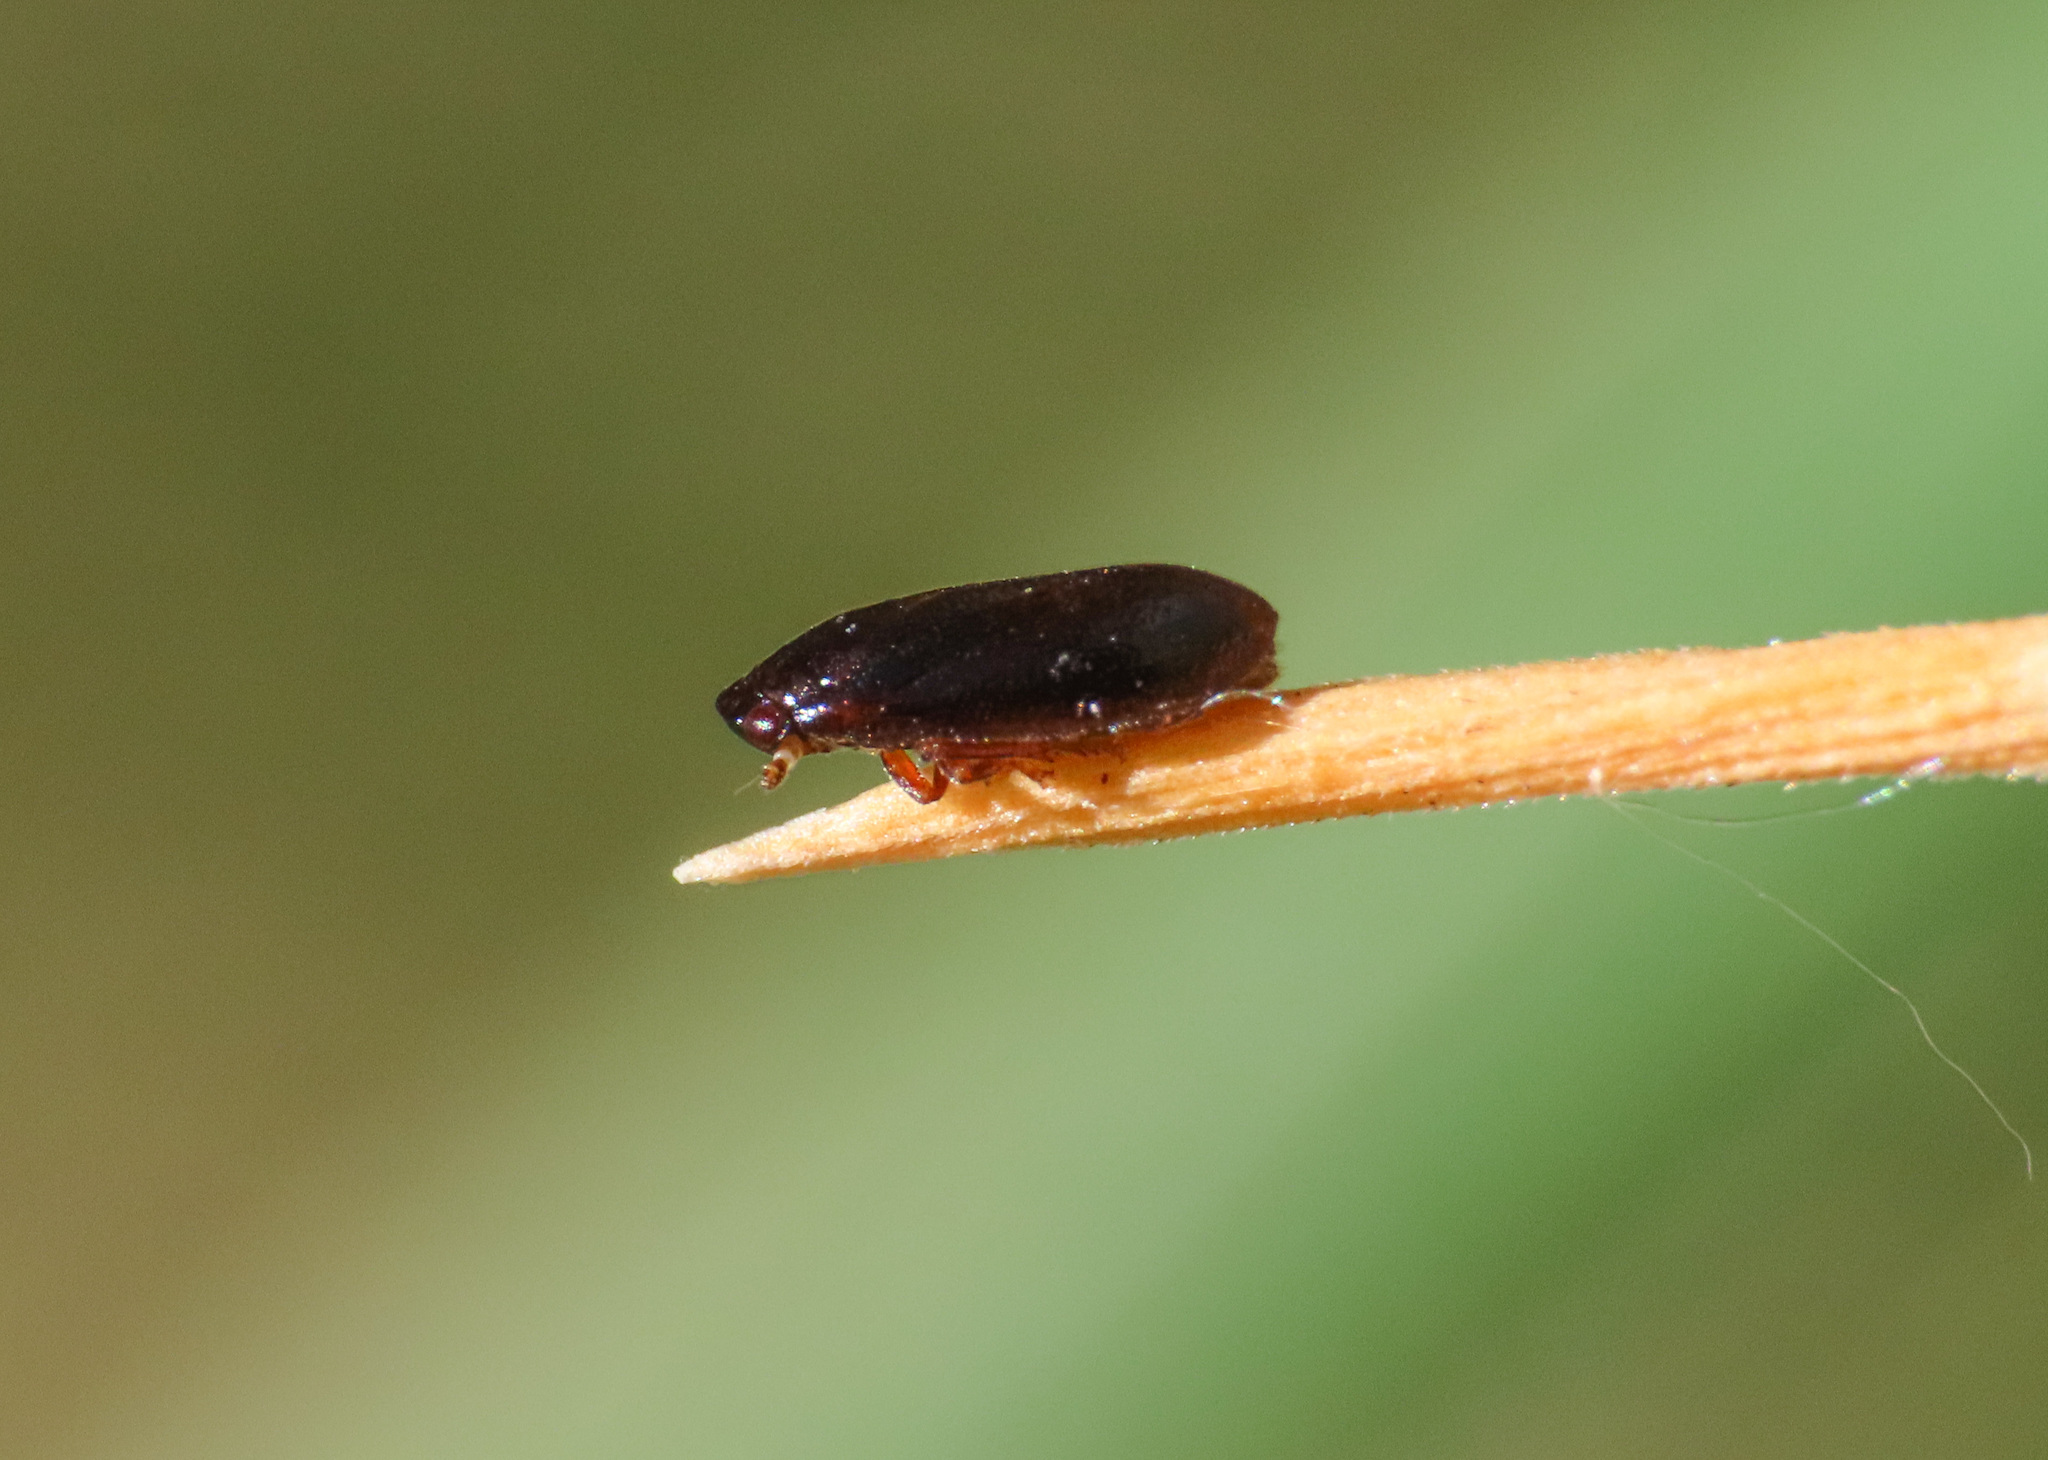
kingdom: Animalia
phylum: Arthropoda
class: Insecta
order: Hemiptera
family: Tettigometridae
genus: Tettigometra
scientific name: Tettigometra baranii
